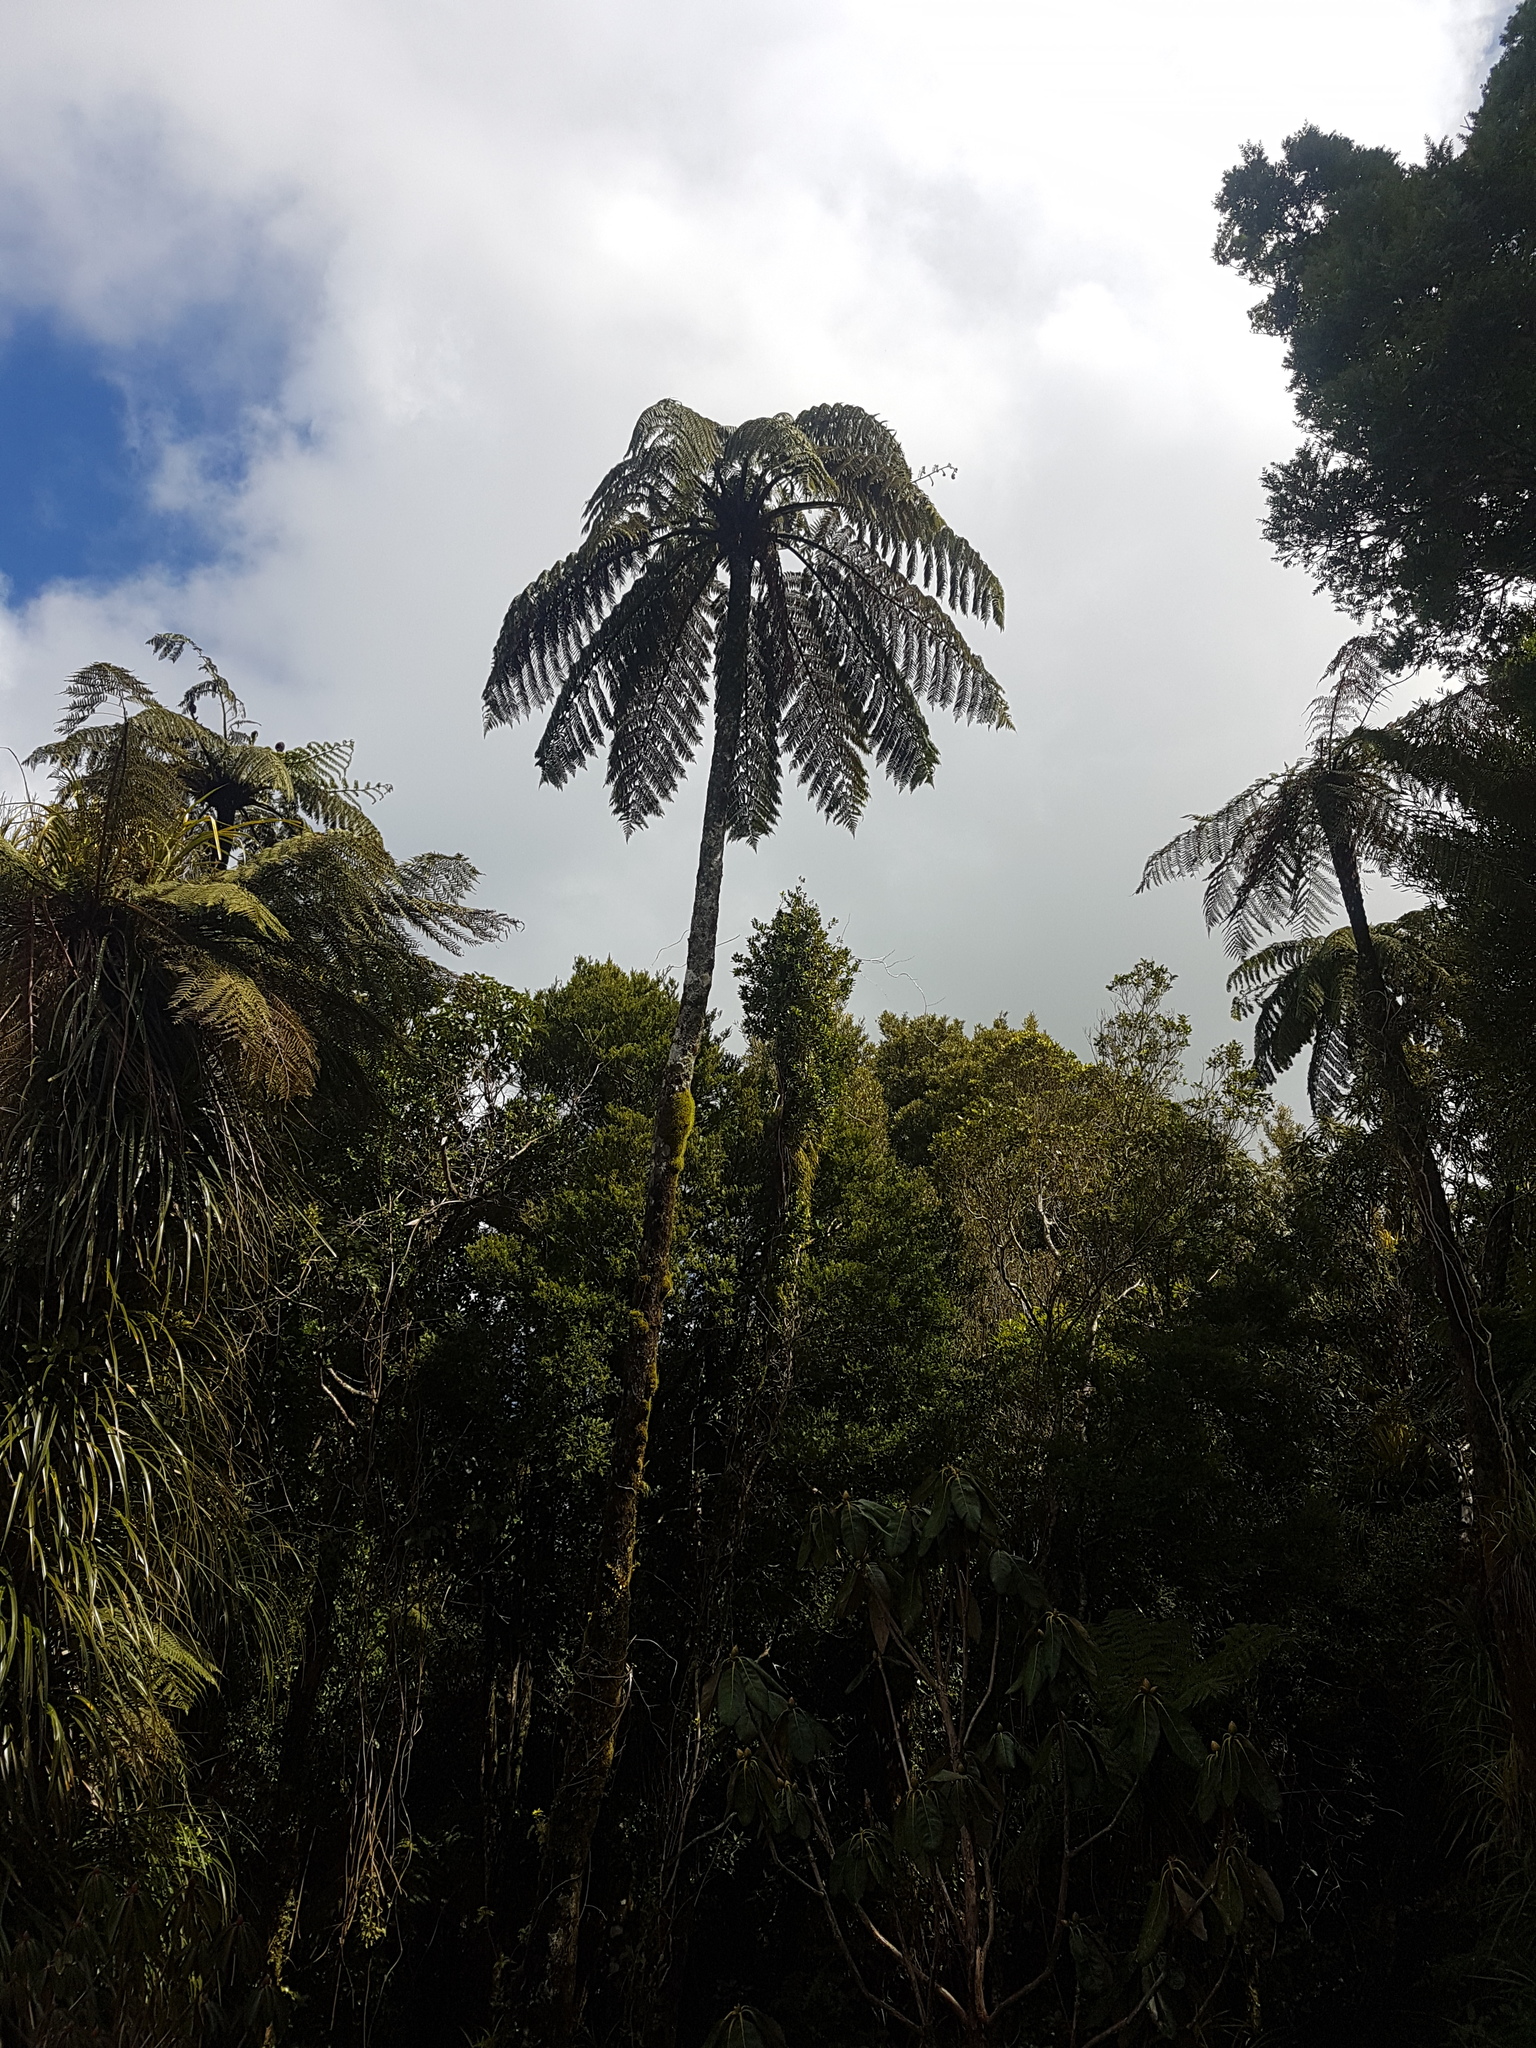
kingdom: Plantae
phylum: Tracheophyta
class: Polypodiopsida
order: Cyatheales
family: Cyatheaceae
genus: Sphaeropteris
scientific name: Sphaeropteris medullaris
